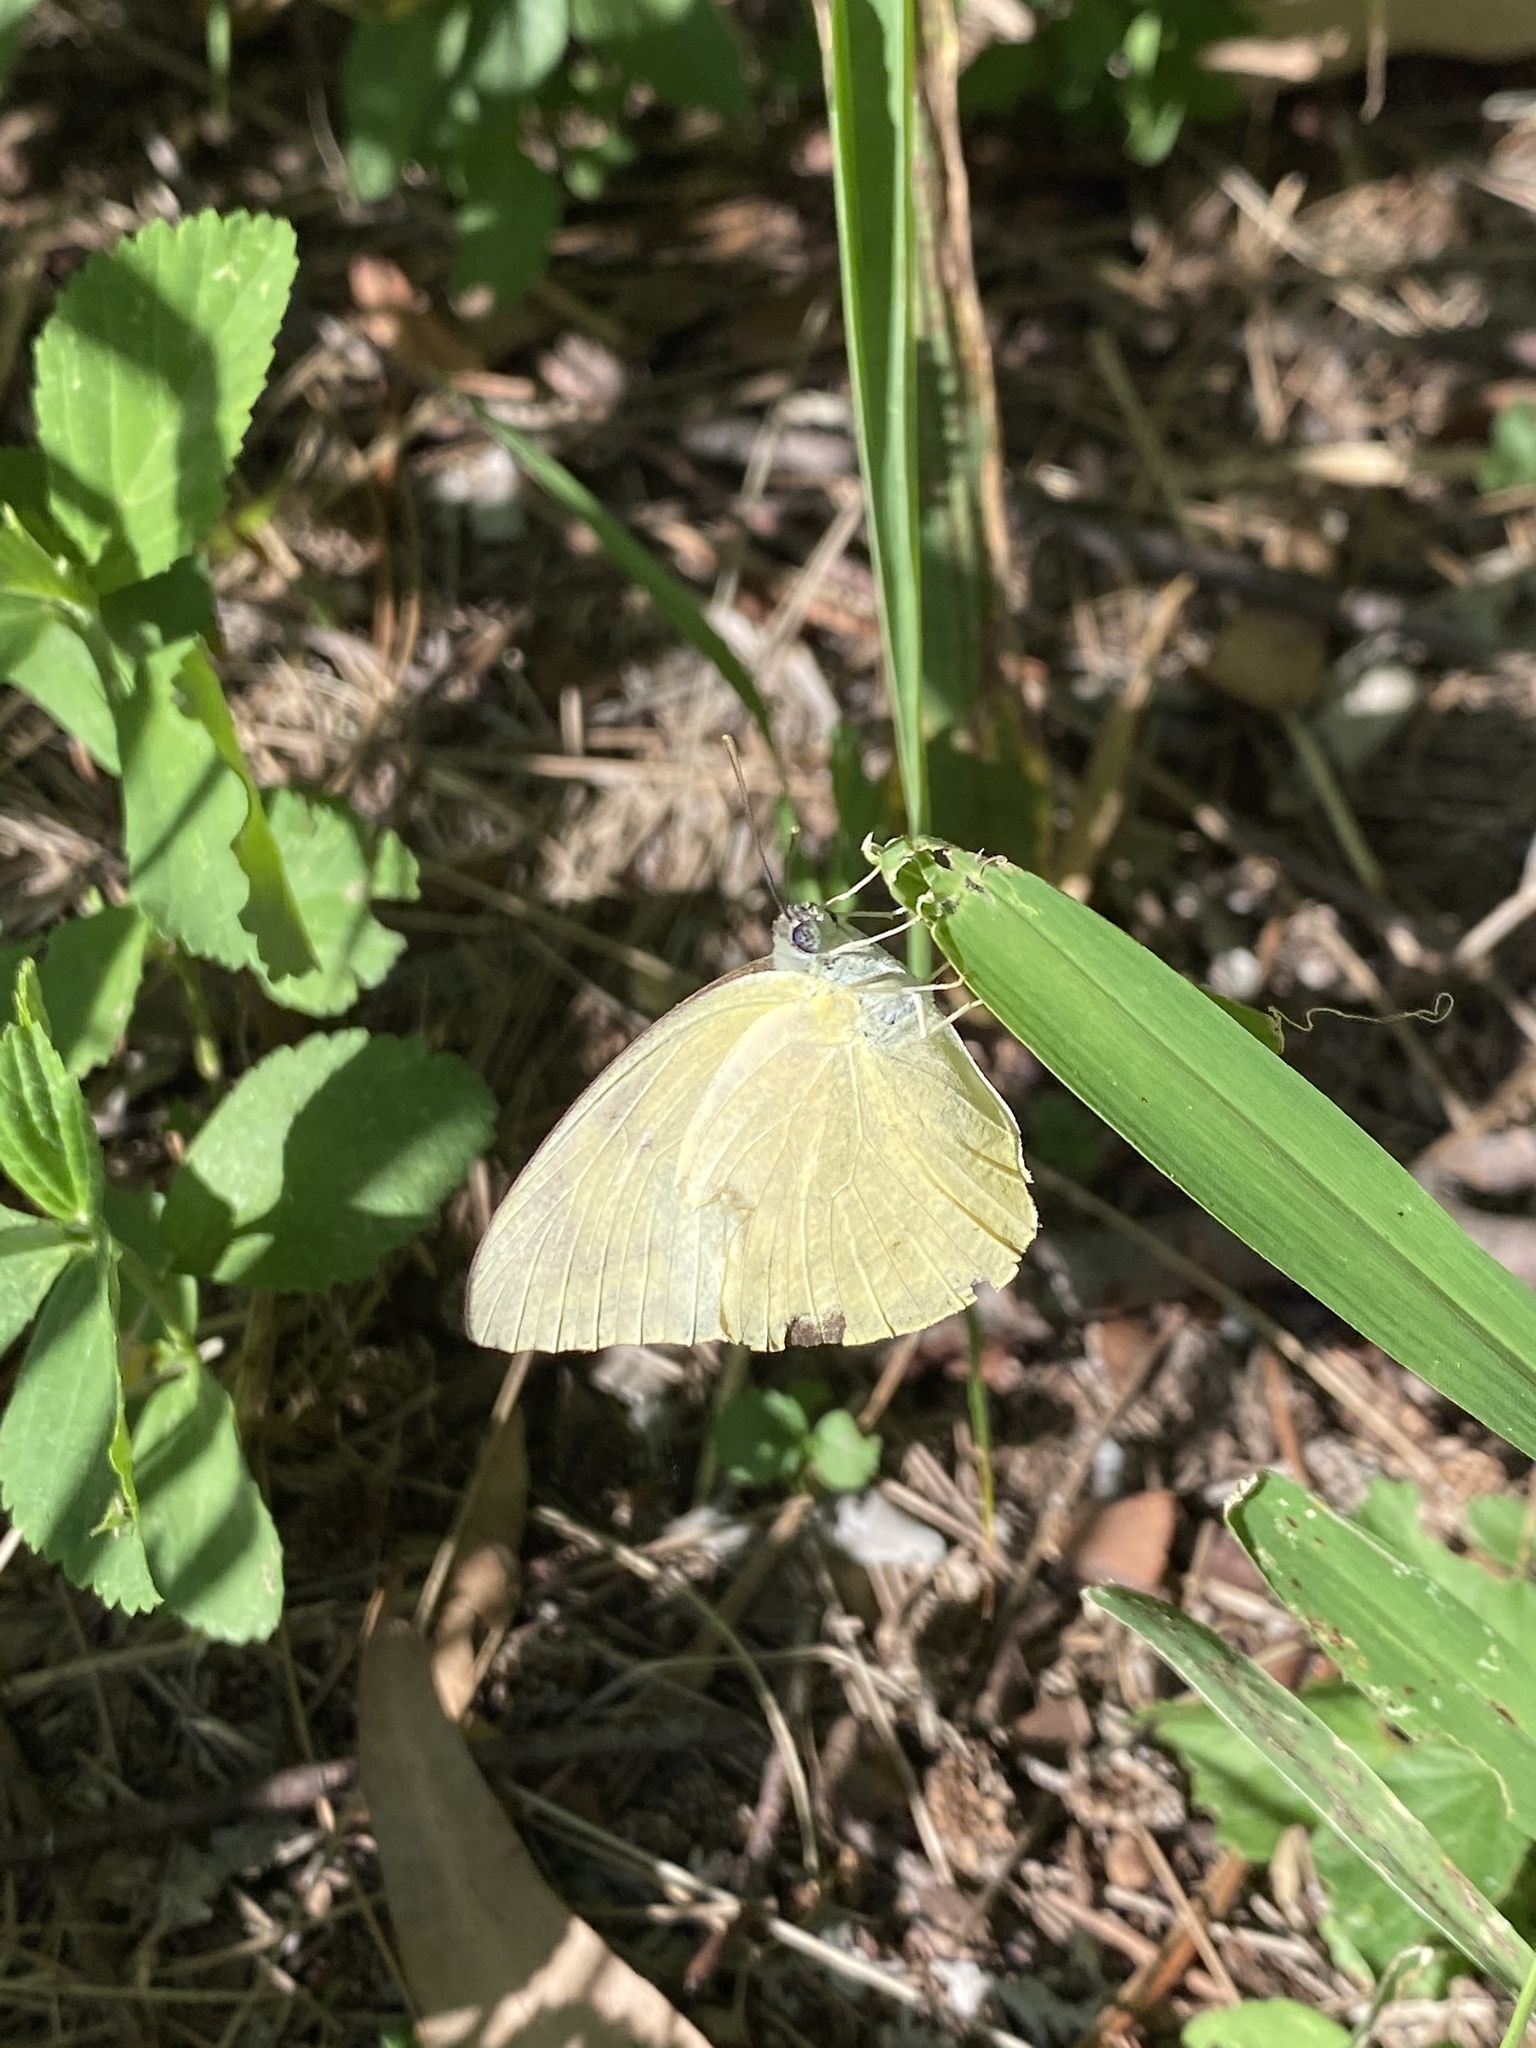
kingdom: Animalia
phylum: Arthropoda
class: Insecta
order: Lepidoptera
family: Pieridae
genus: Catopsilia
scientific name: Catopsilia pomona
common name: Common emigrant
